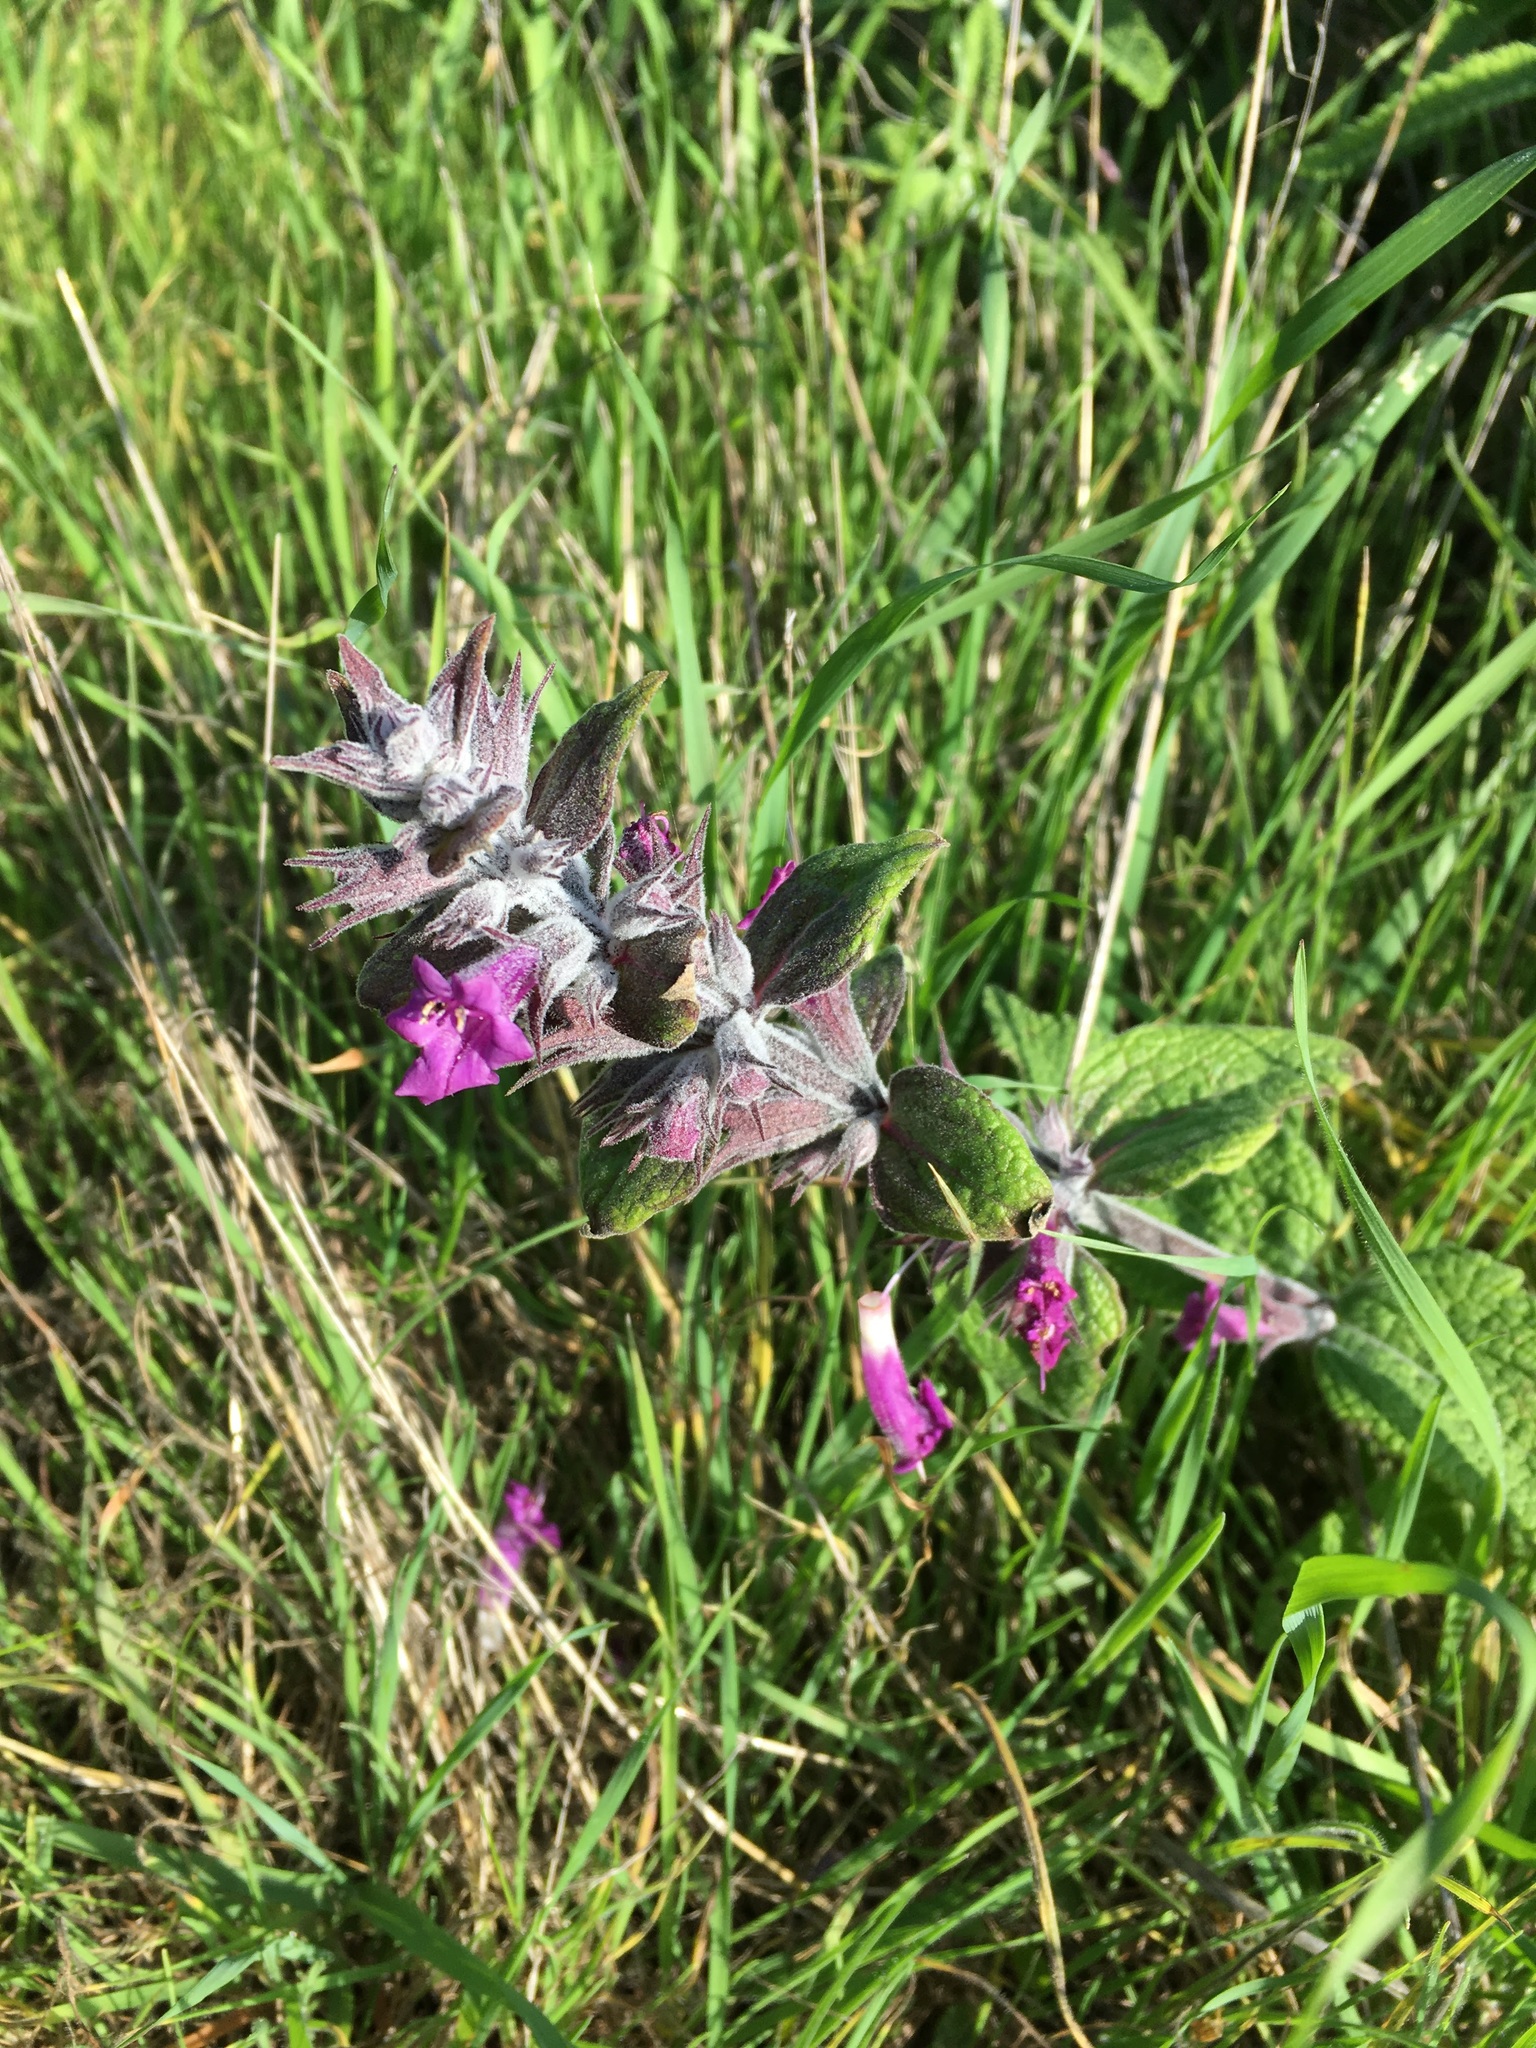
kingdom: Plantae
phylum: Tracheophyta
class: Magnoliopsida
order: Lamiales
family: Lamiaceae
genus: Lepechinia
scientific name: Lepechinia salviae
